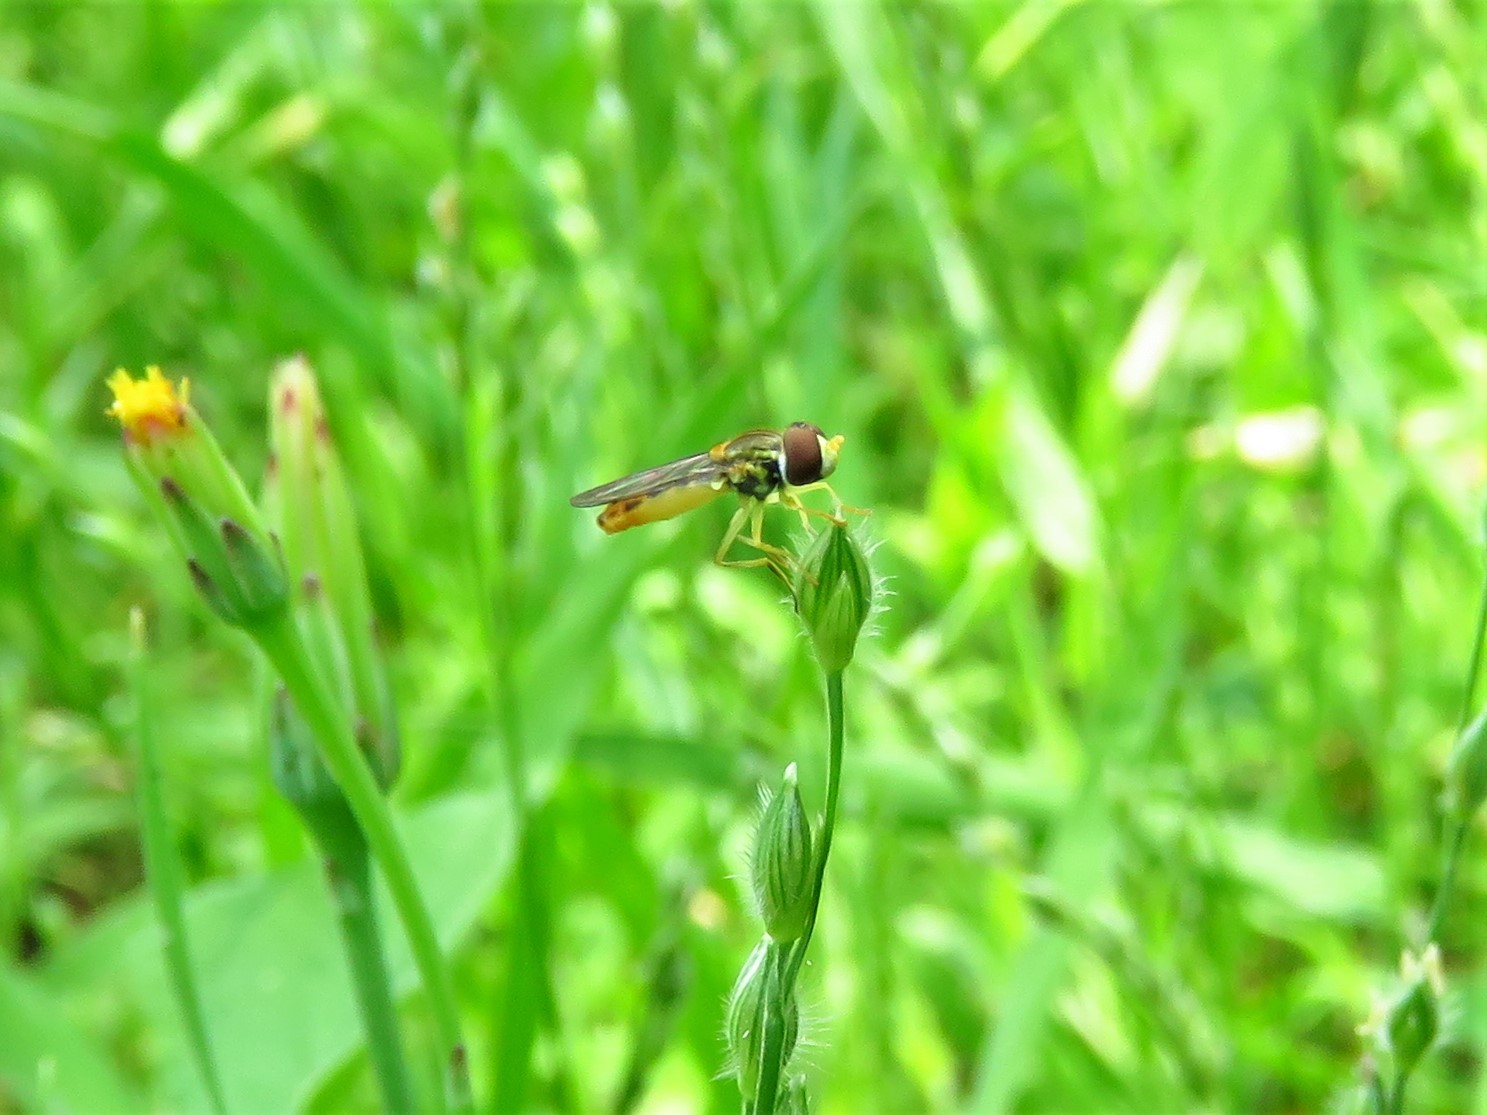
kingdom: Animalia
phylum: Arthropoda
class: Insecta
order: Diptera
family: Syrphidae
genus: Toxomerus
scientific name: Toxomerus marginatus
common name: Syrphid fly
